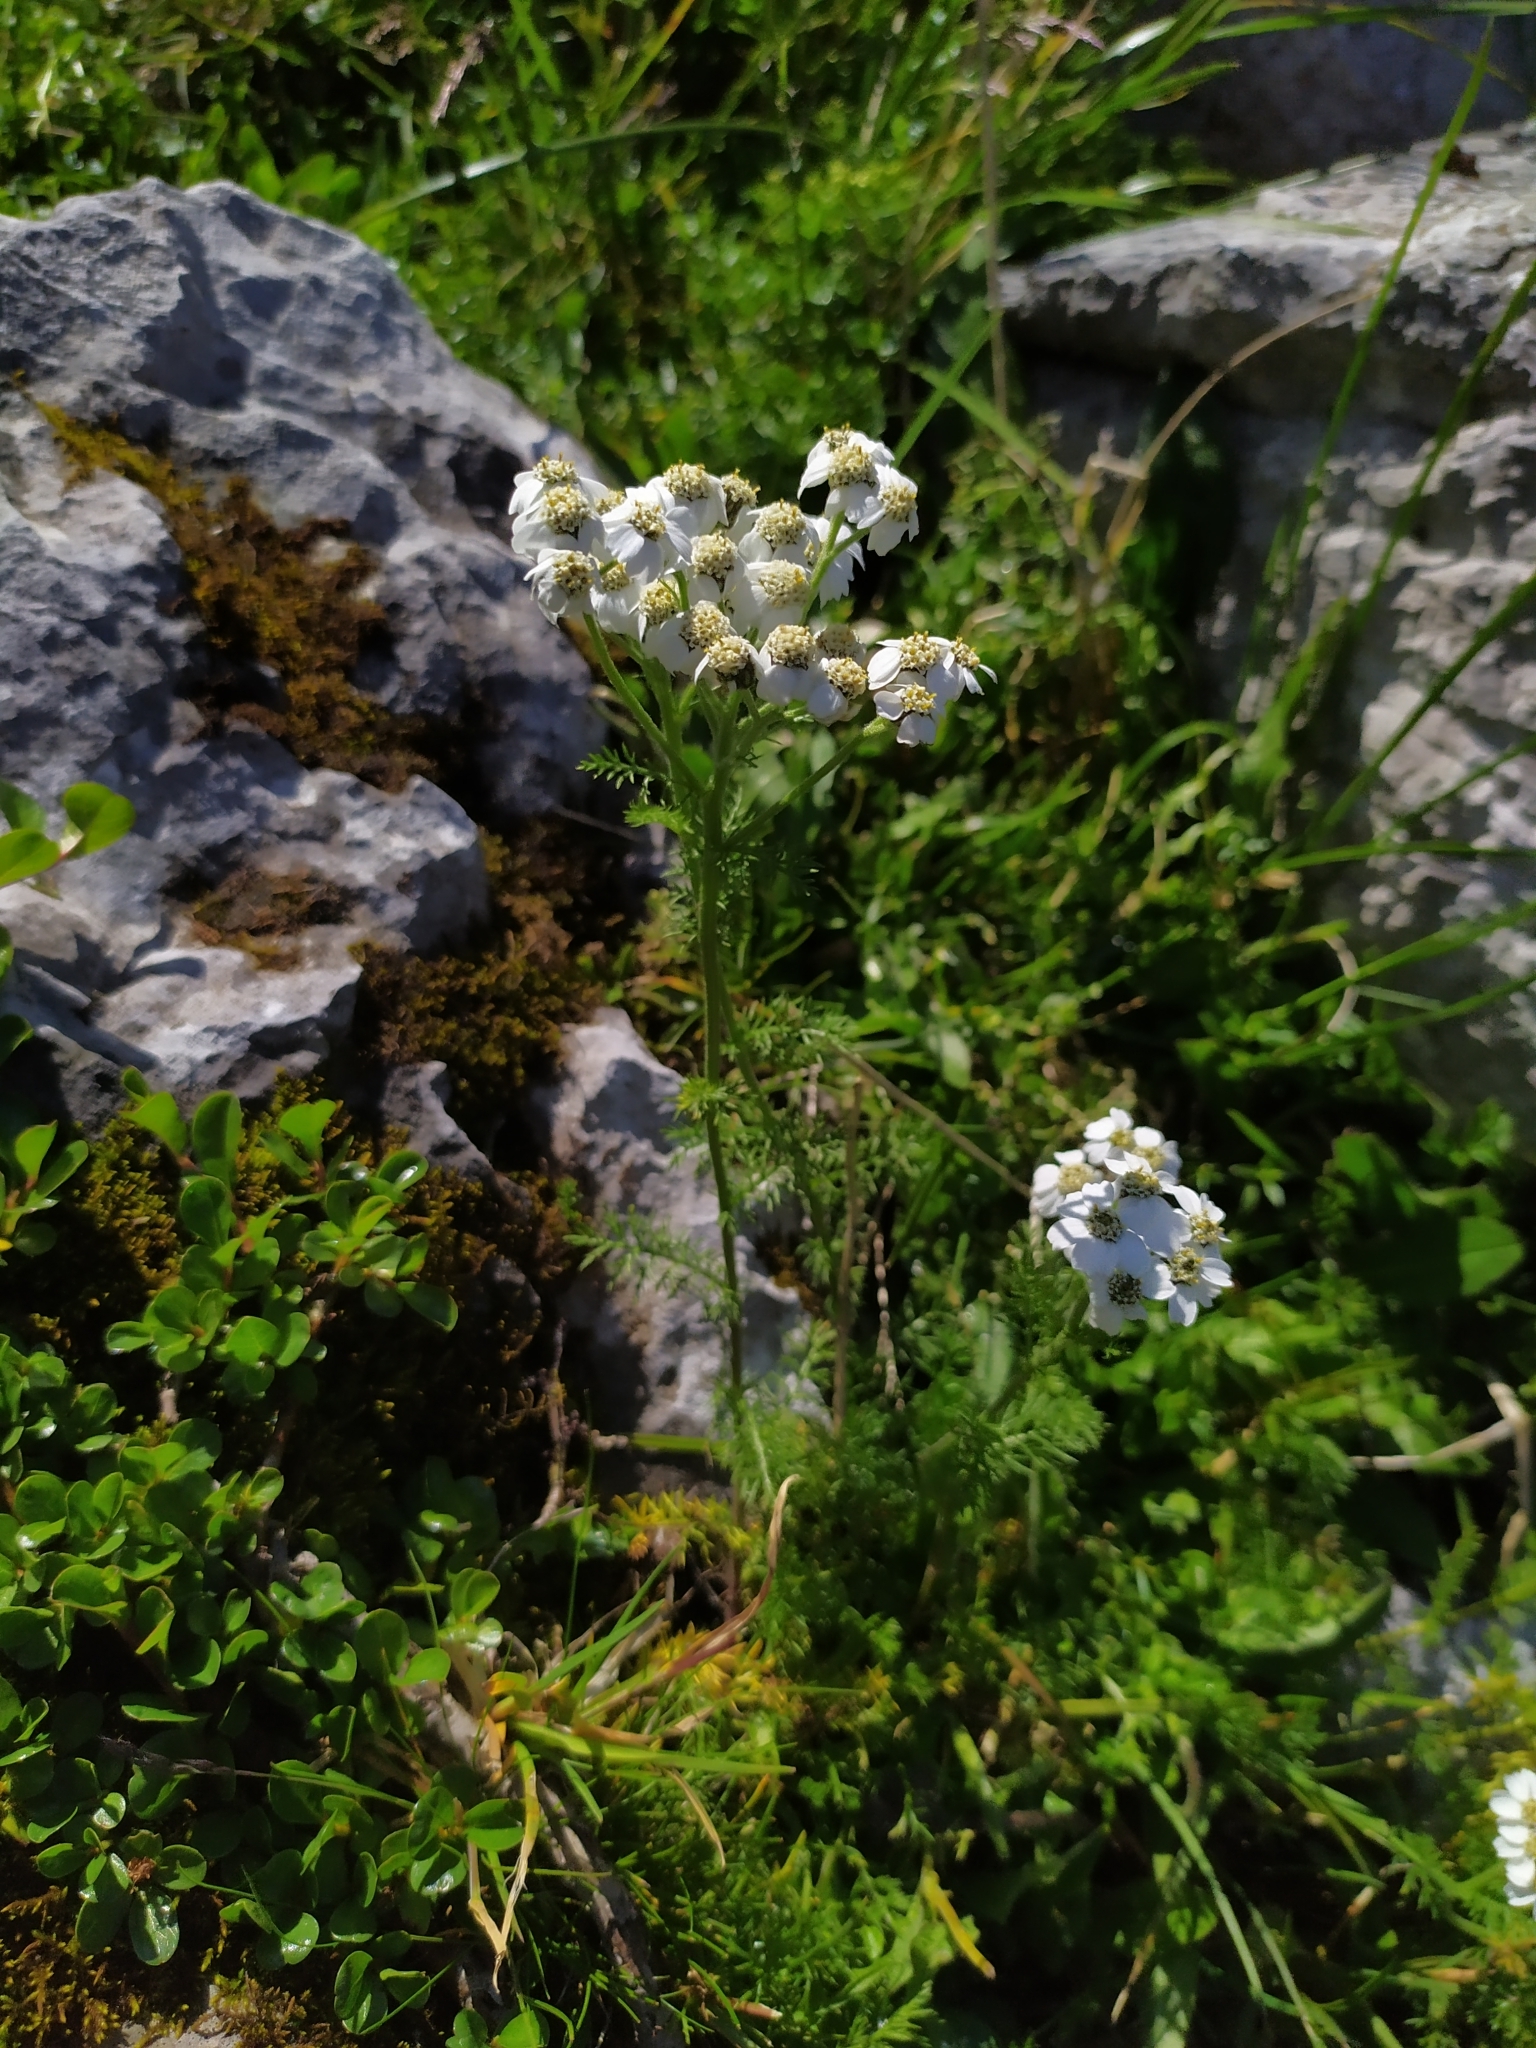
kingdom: Plantae
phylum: Tracheophyta
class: Magnoliopsida
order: Asterales
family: Asteraceae
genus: Achillea
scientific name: Achillea clusiana
